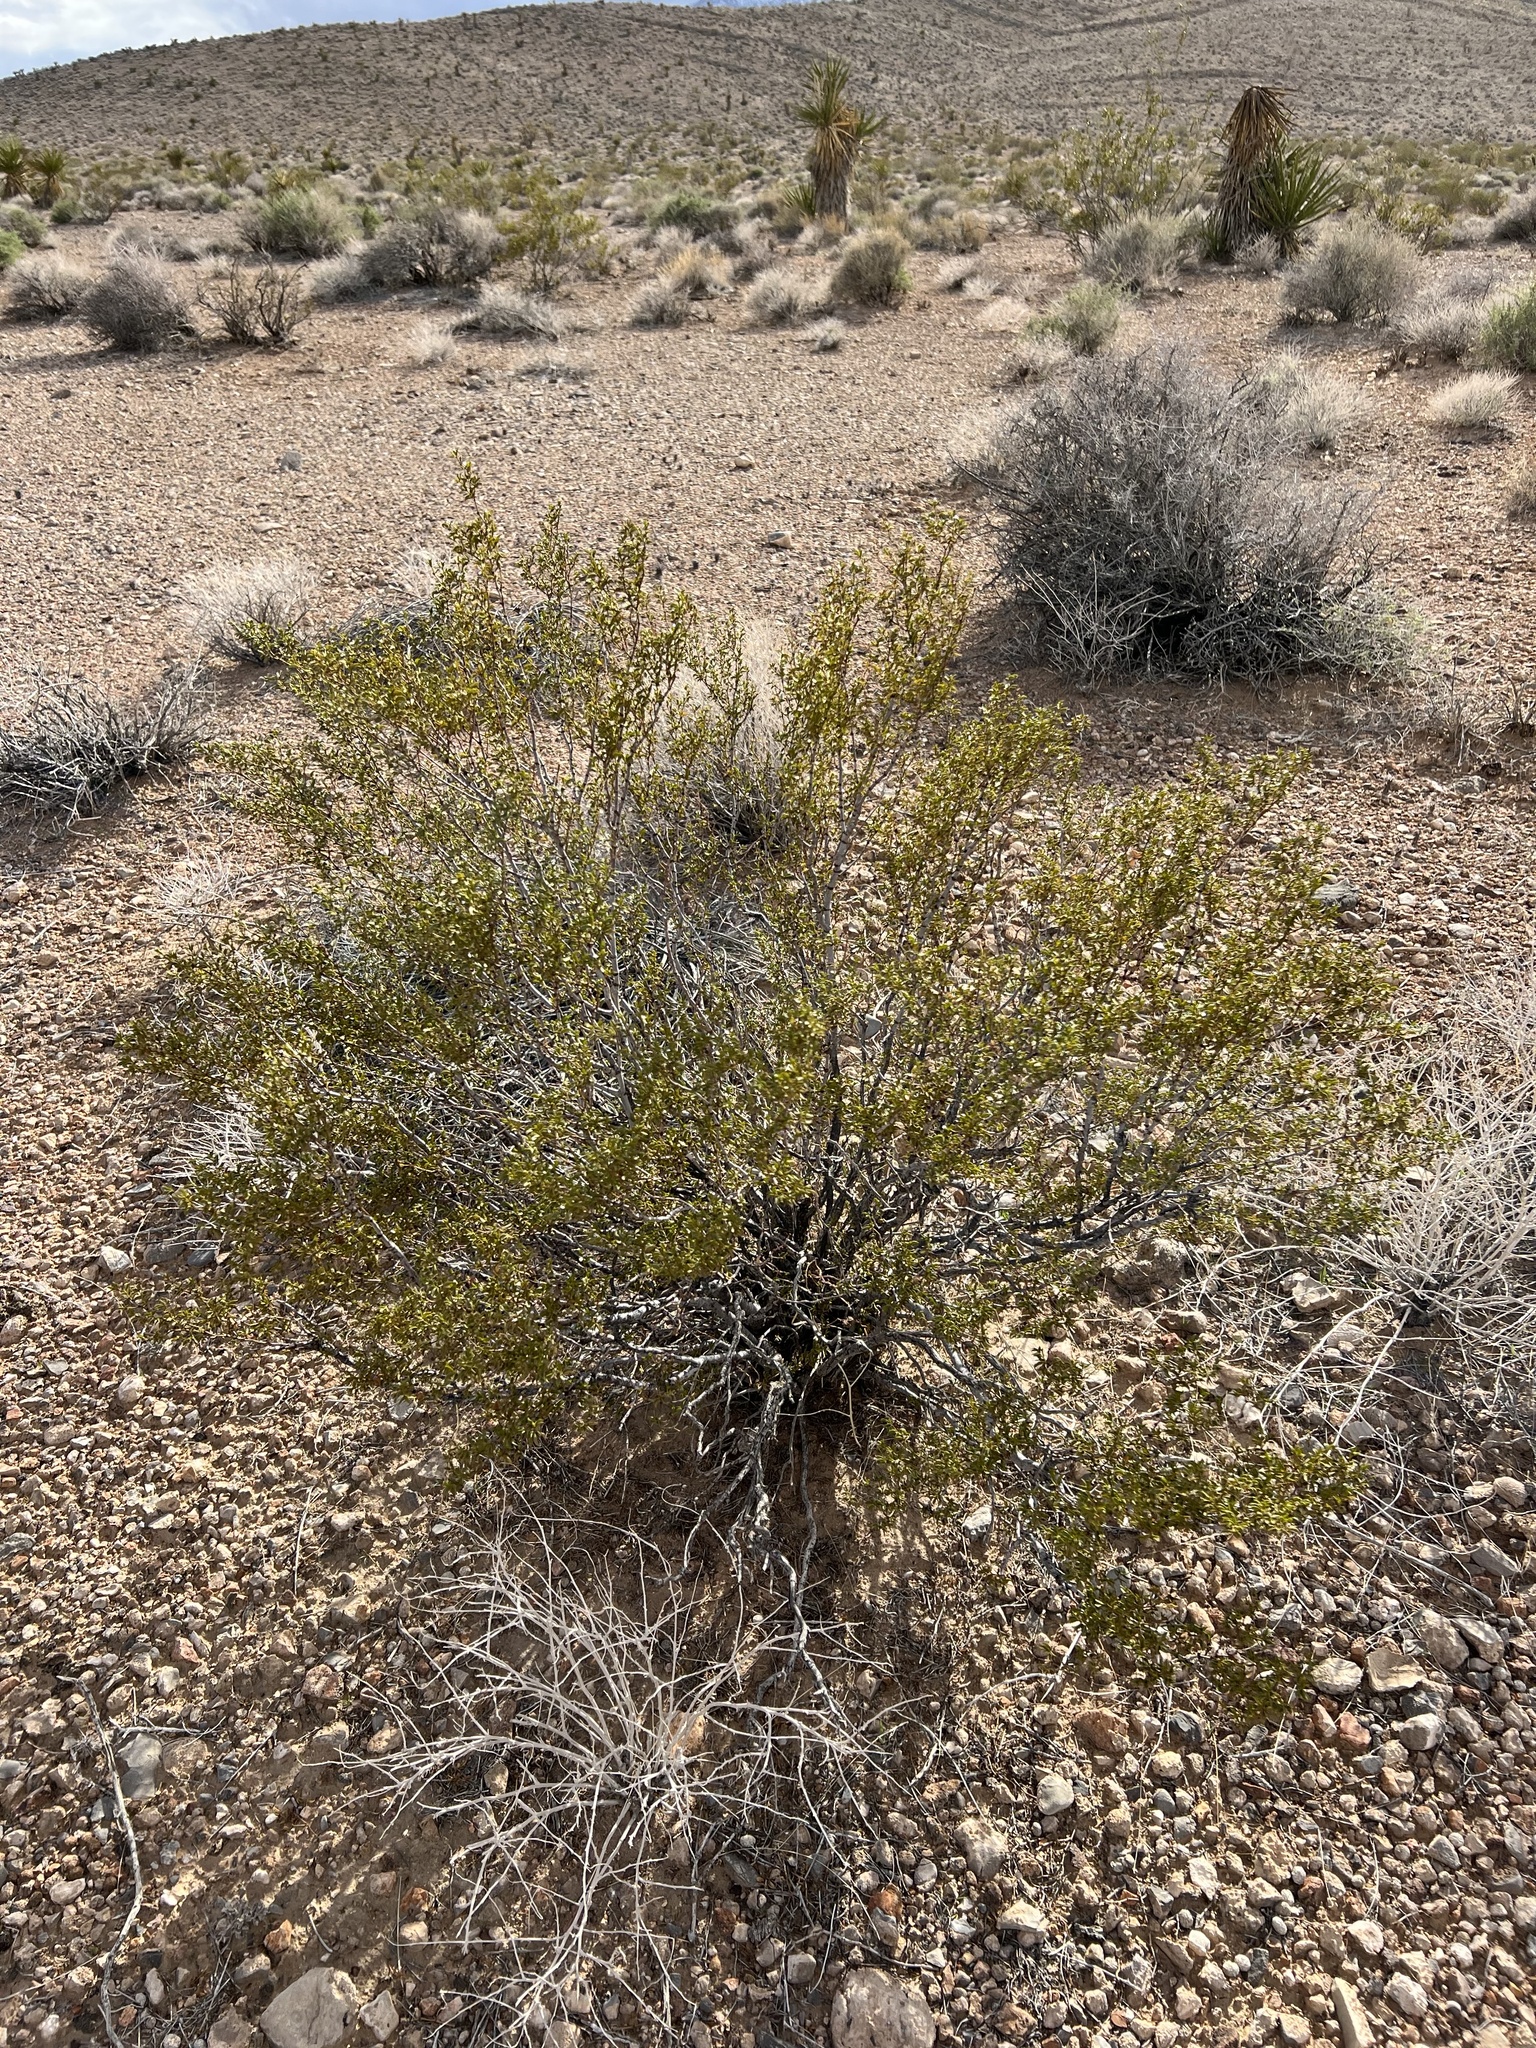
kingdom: Plantae
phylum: Tracheophyta
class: Magnoliopsida
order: Zygophyllales
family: Zygophyllaceae
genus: Larrea
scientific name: Larrea tridentata
